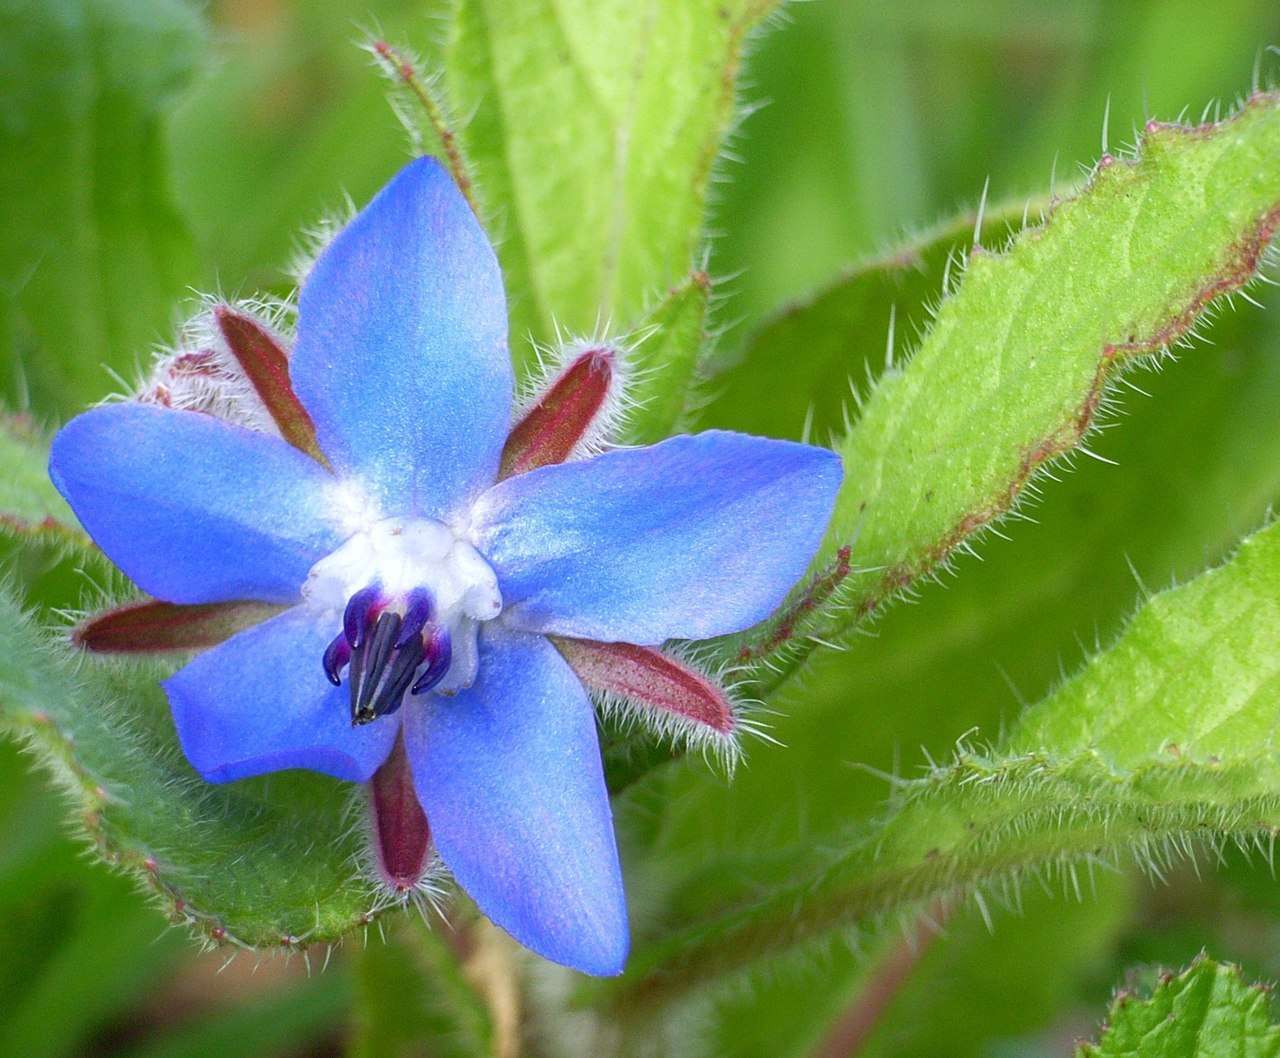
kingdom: Plantae
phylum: Tracheophyta
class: Magnoliopsida
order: Boraginales
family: Boraginaceae
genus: Borago
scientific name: Borago officinalis
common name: Borage
